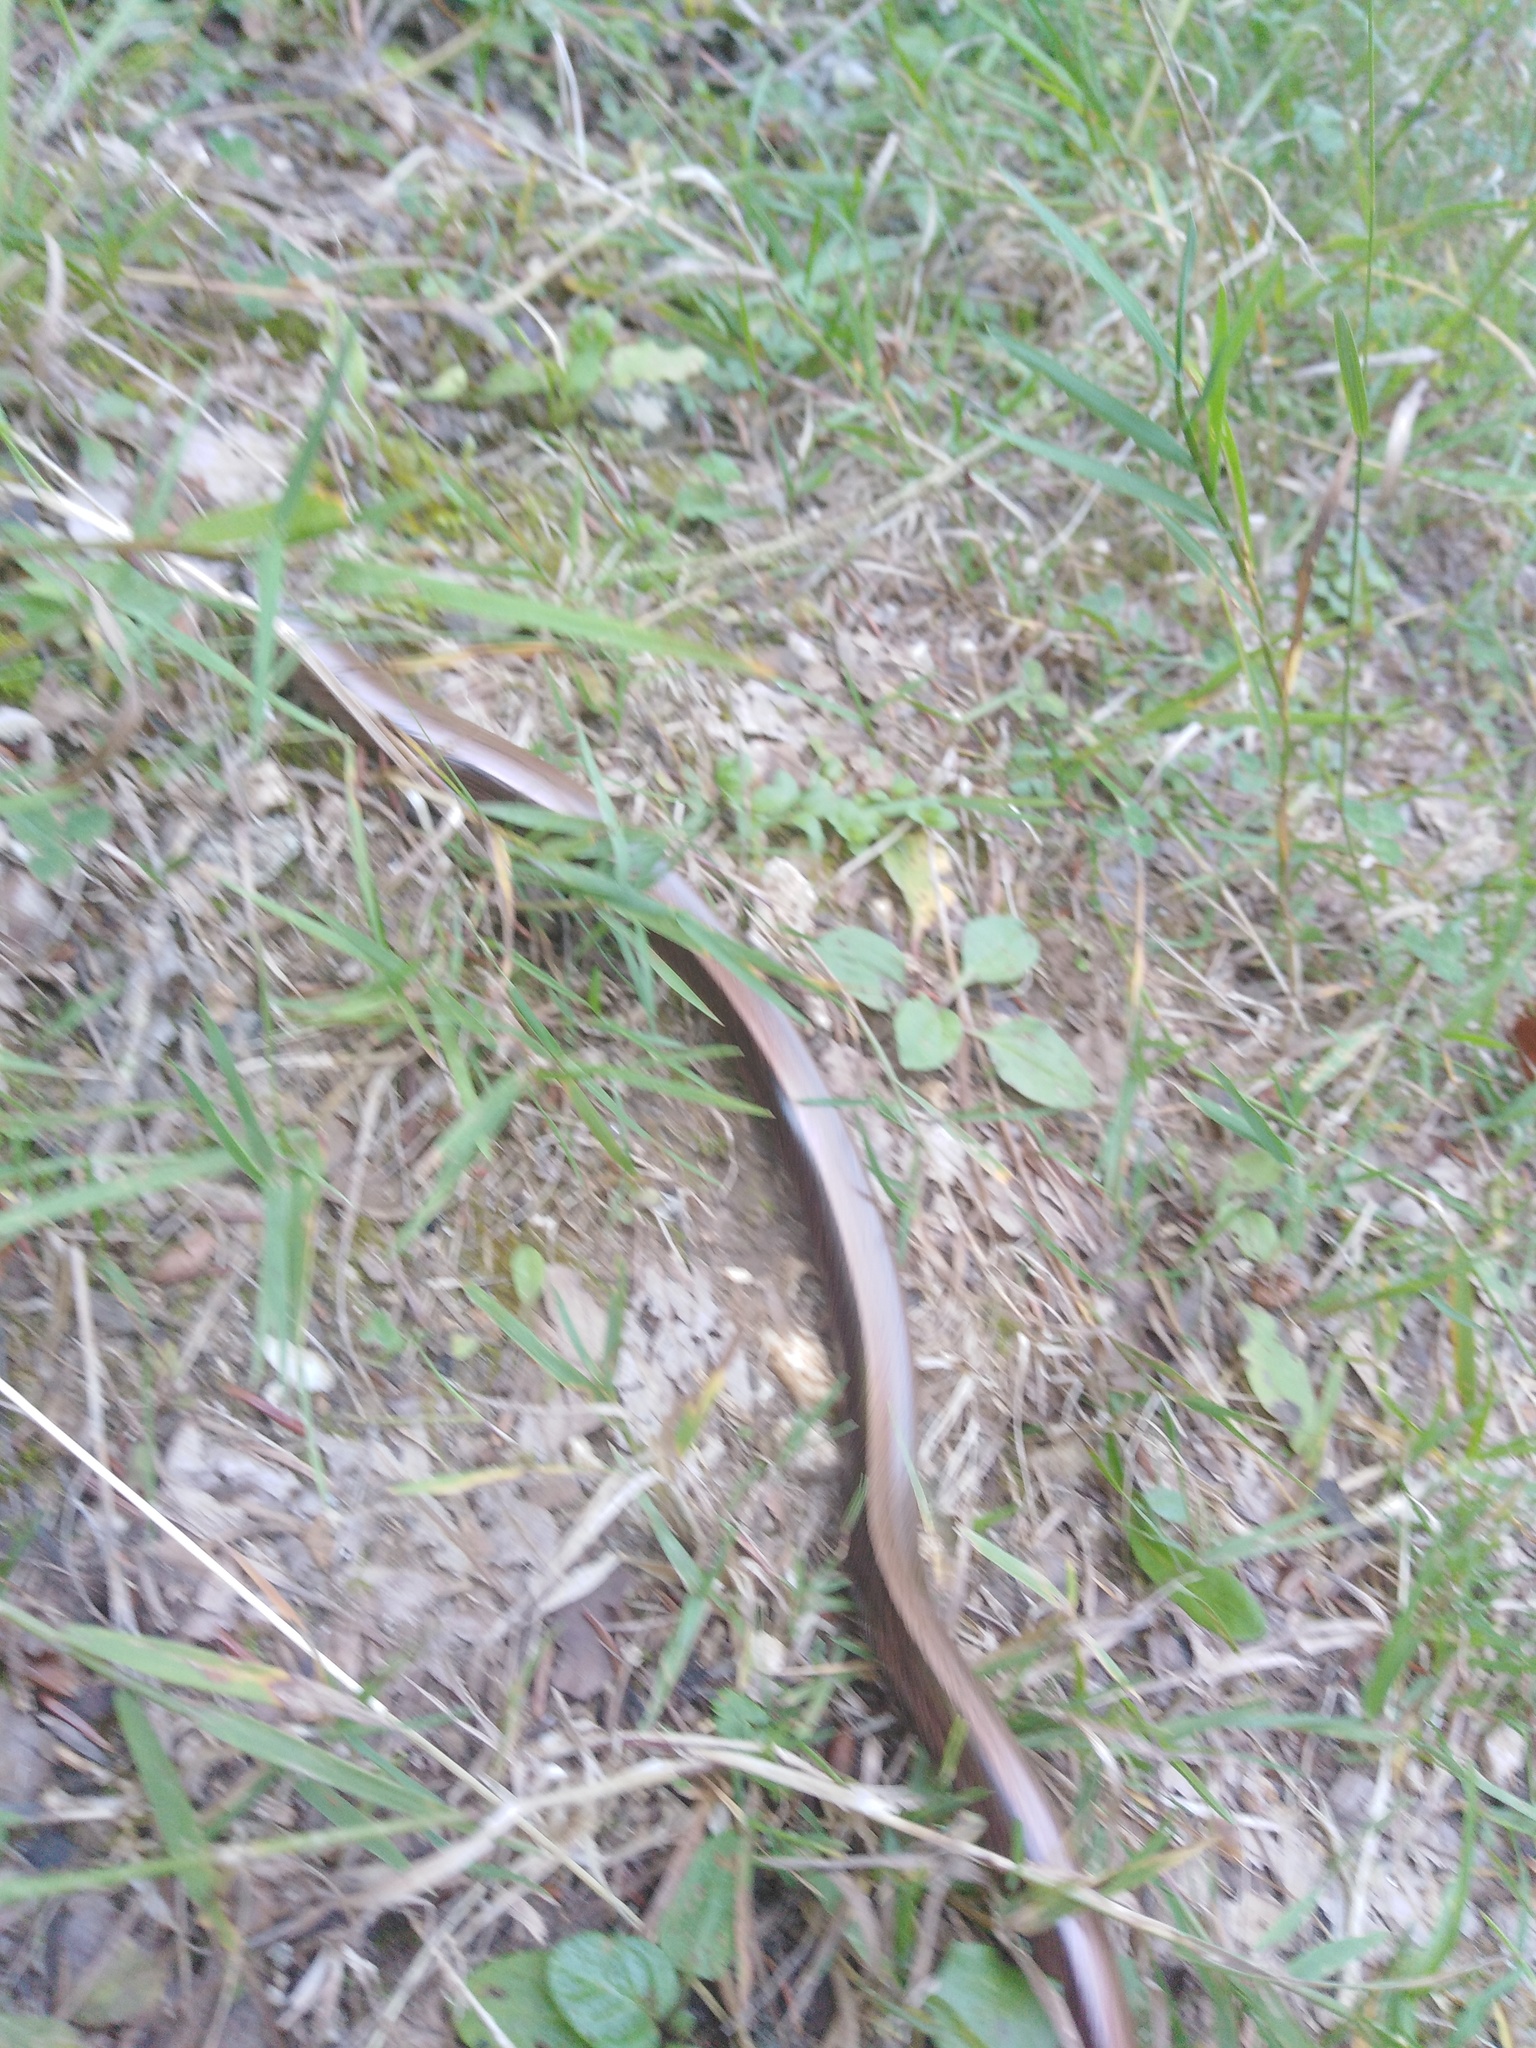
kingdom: Animalia
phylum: Chordata
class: Squamata
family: Anguidae
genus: Anguis
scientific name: Anguis fragilis
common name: Slow worm
